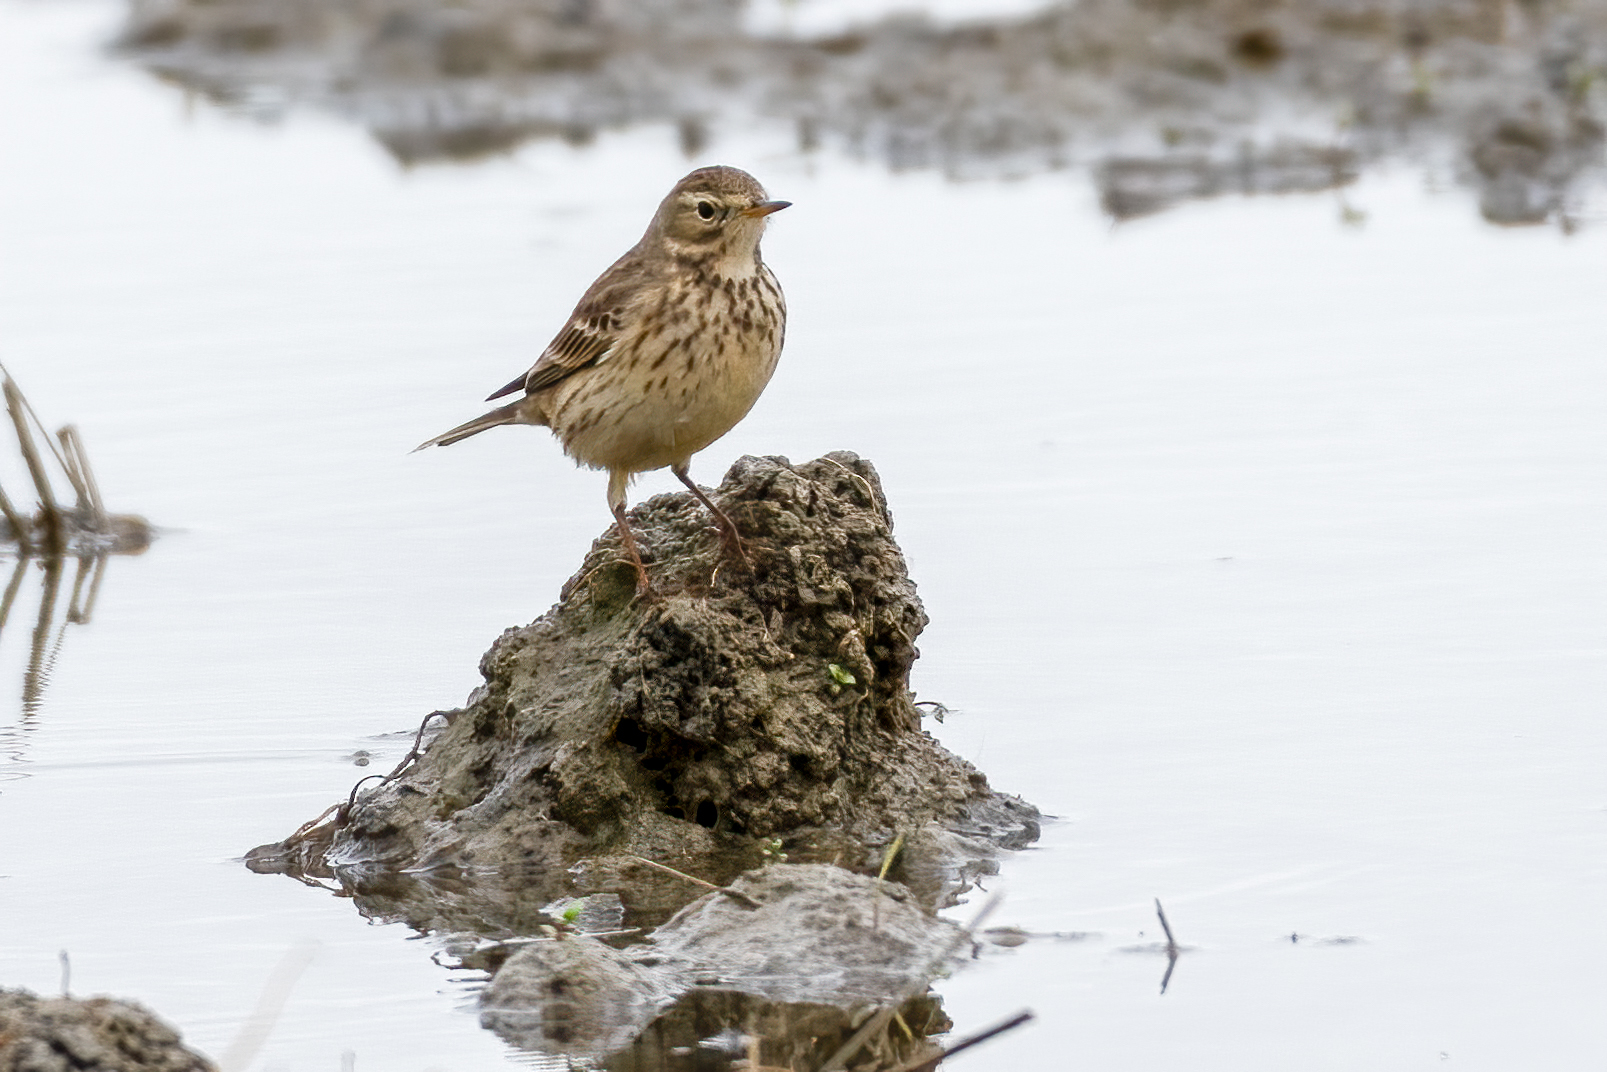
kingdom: Animalia
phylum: Chordata
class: Aves
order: Passeriformes
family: Motacillidae
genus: Anthus
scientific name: Anthus rubescens
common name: Buff-bellied pipit
